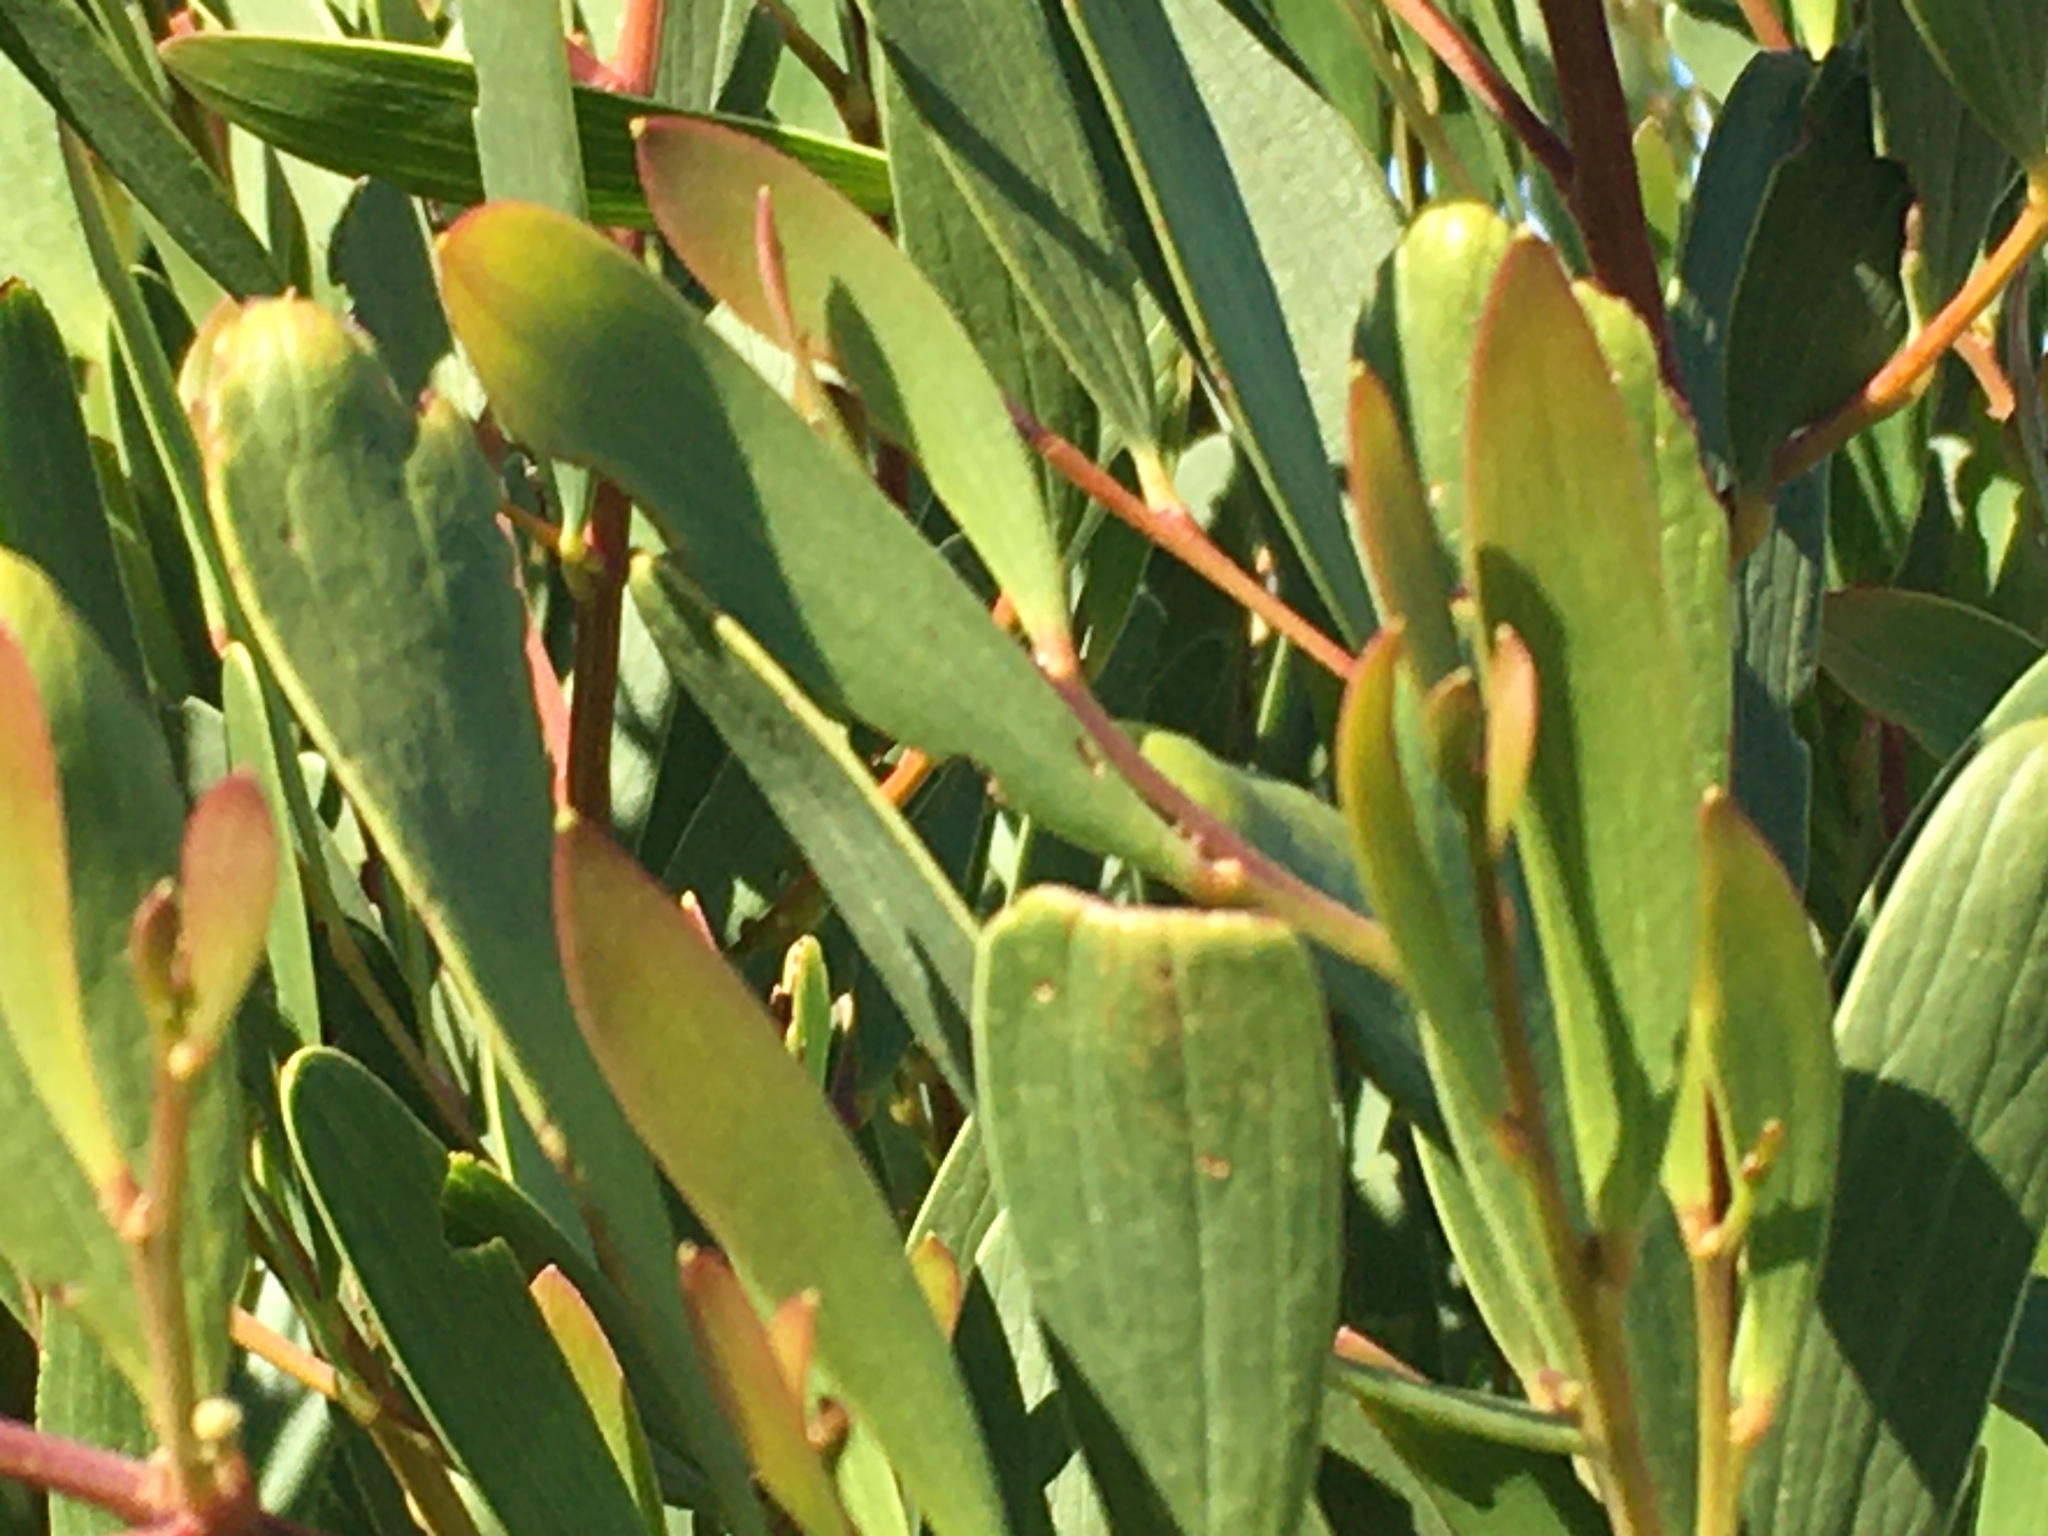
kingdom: Plantae
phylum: Tracheophyta
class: Magnoliopsida
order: Fabales
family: Fabaceae
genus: Acacia
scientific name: Acacia cyclops
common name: Coastal wattle
